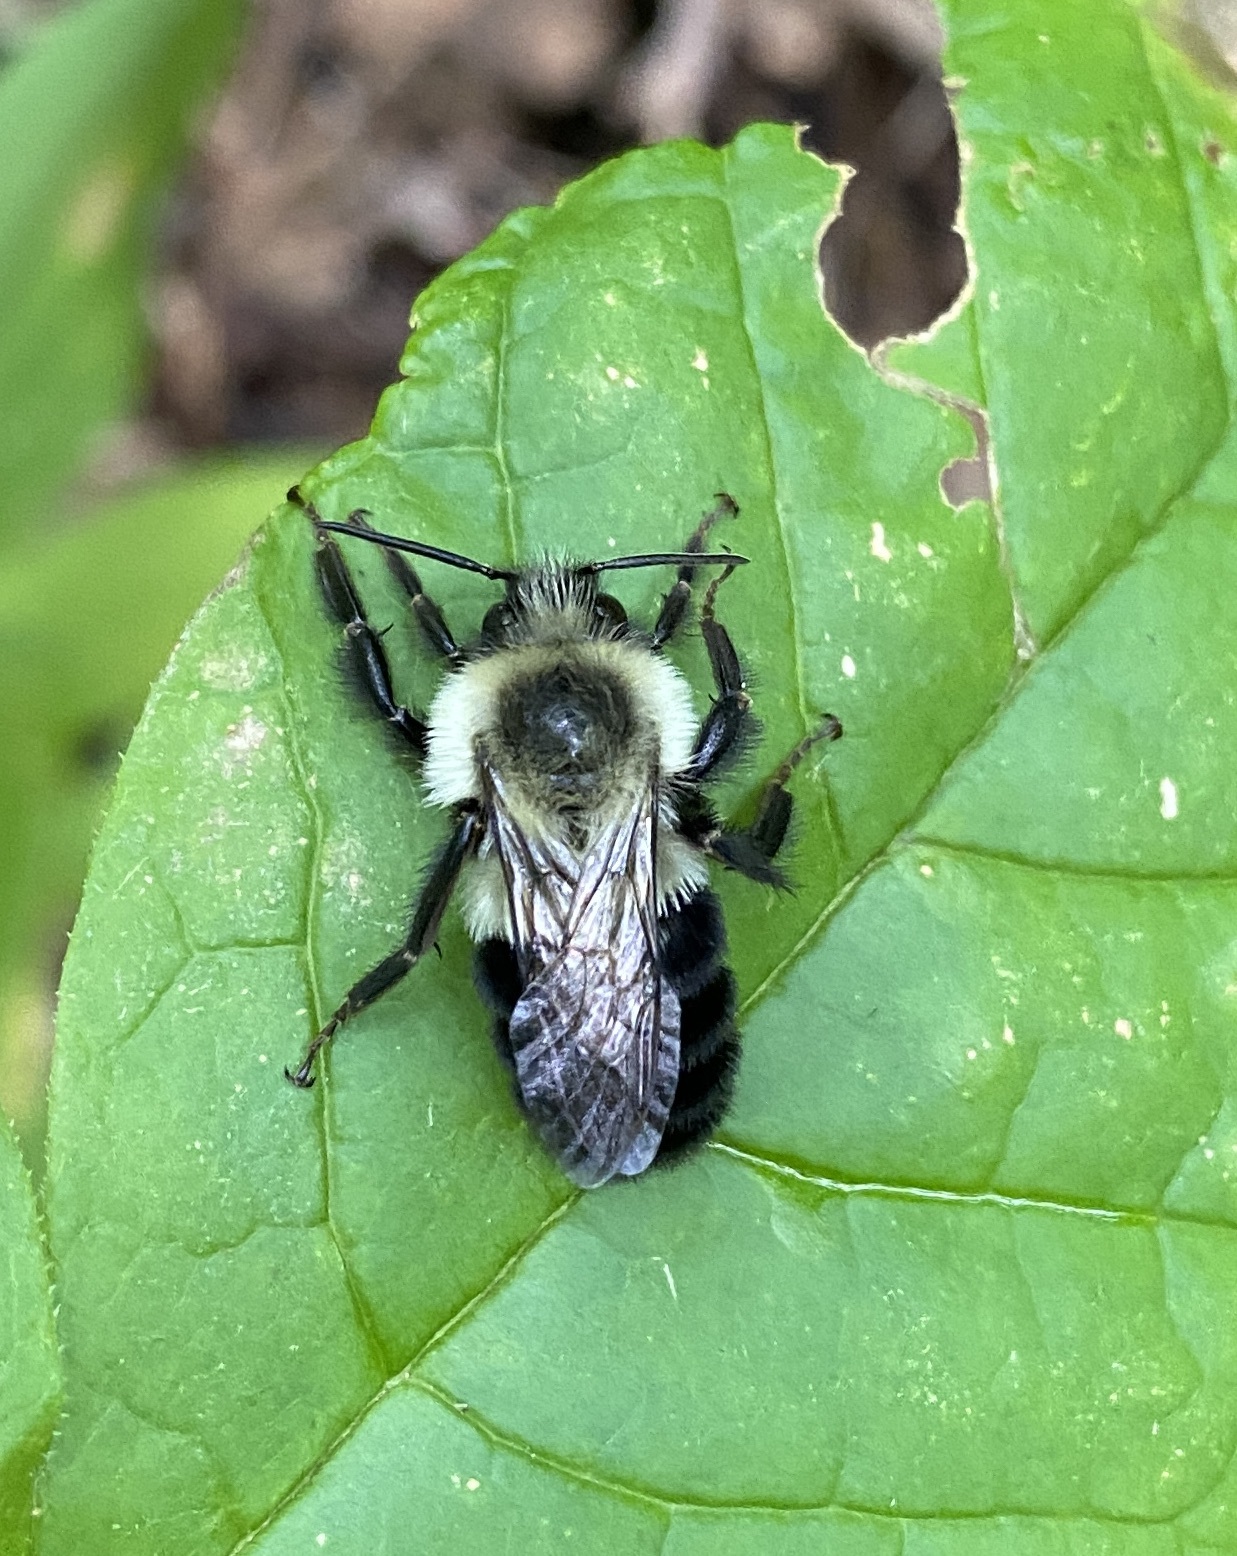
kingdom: Animalia
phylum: Arthropoda
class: Insecta
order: Hymenoptera
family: Apidae
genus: Bombus
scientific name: Bombus impatiens
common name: Common eastern bumble bee
